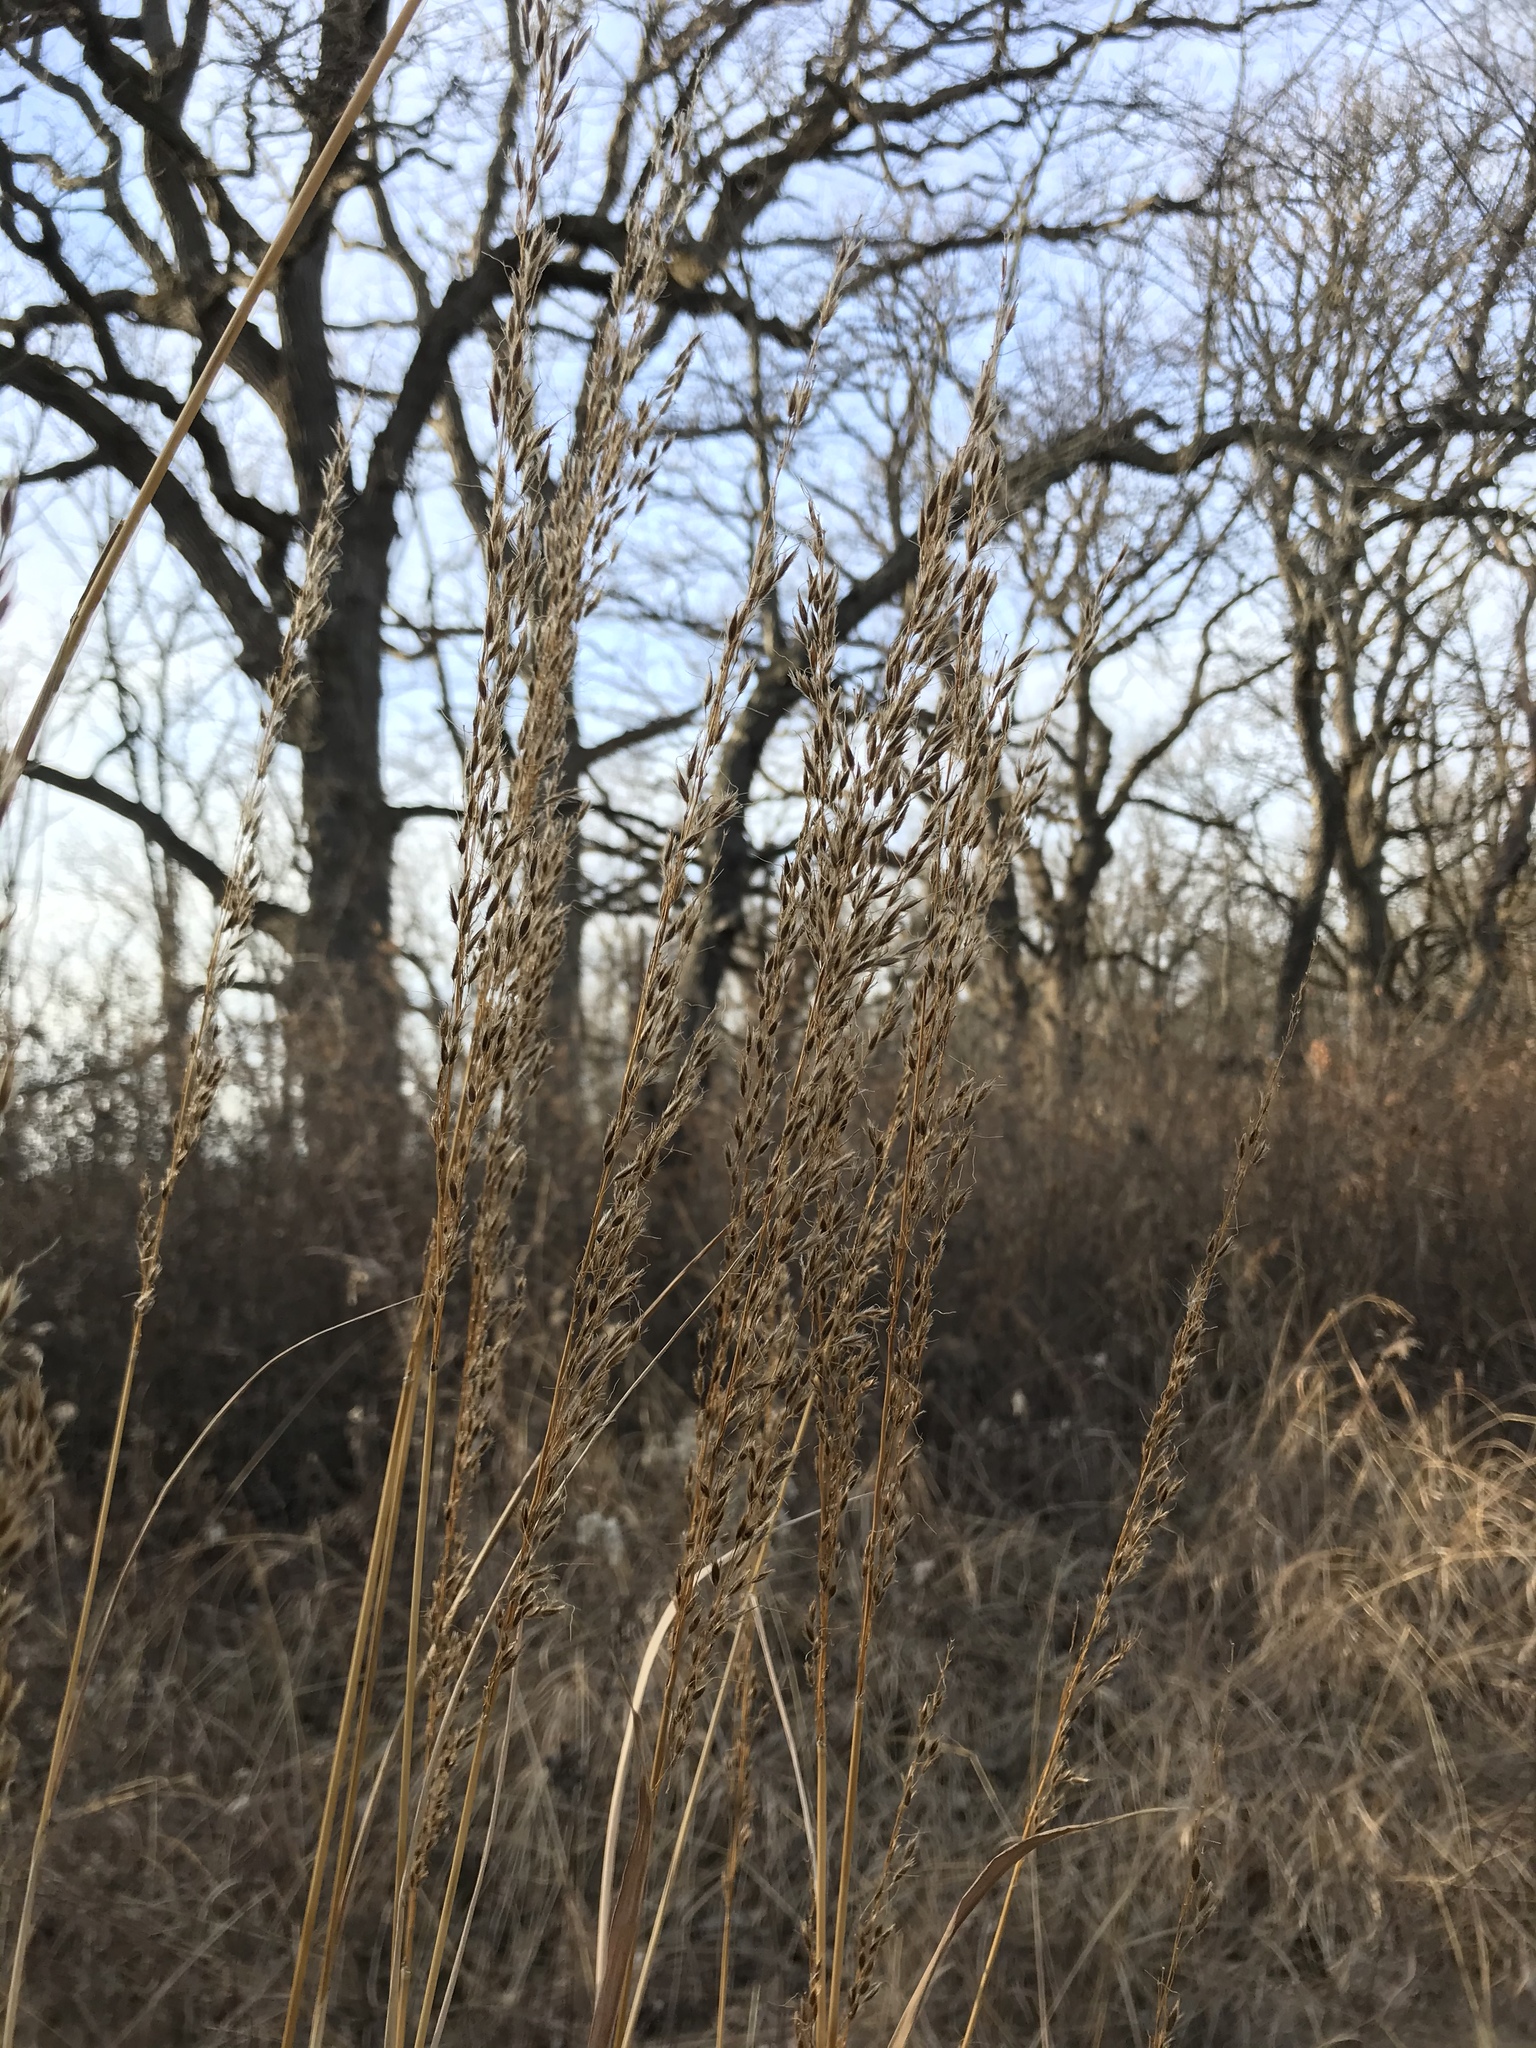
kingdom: Plantae
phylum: Tracheophyta
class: Liliopsida
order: Poales
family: Poaceae
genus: Sorghastrum
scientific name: Sorghastrum nutans
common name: Indian grass
